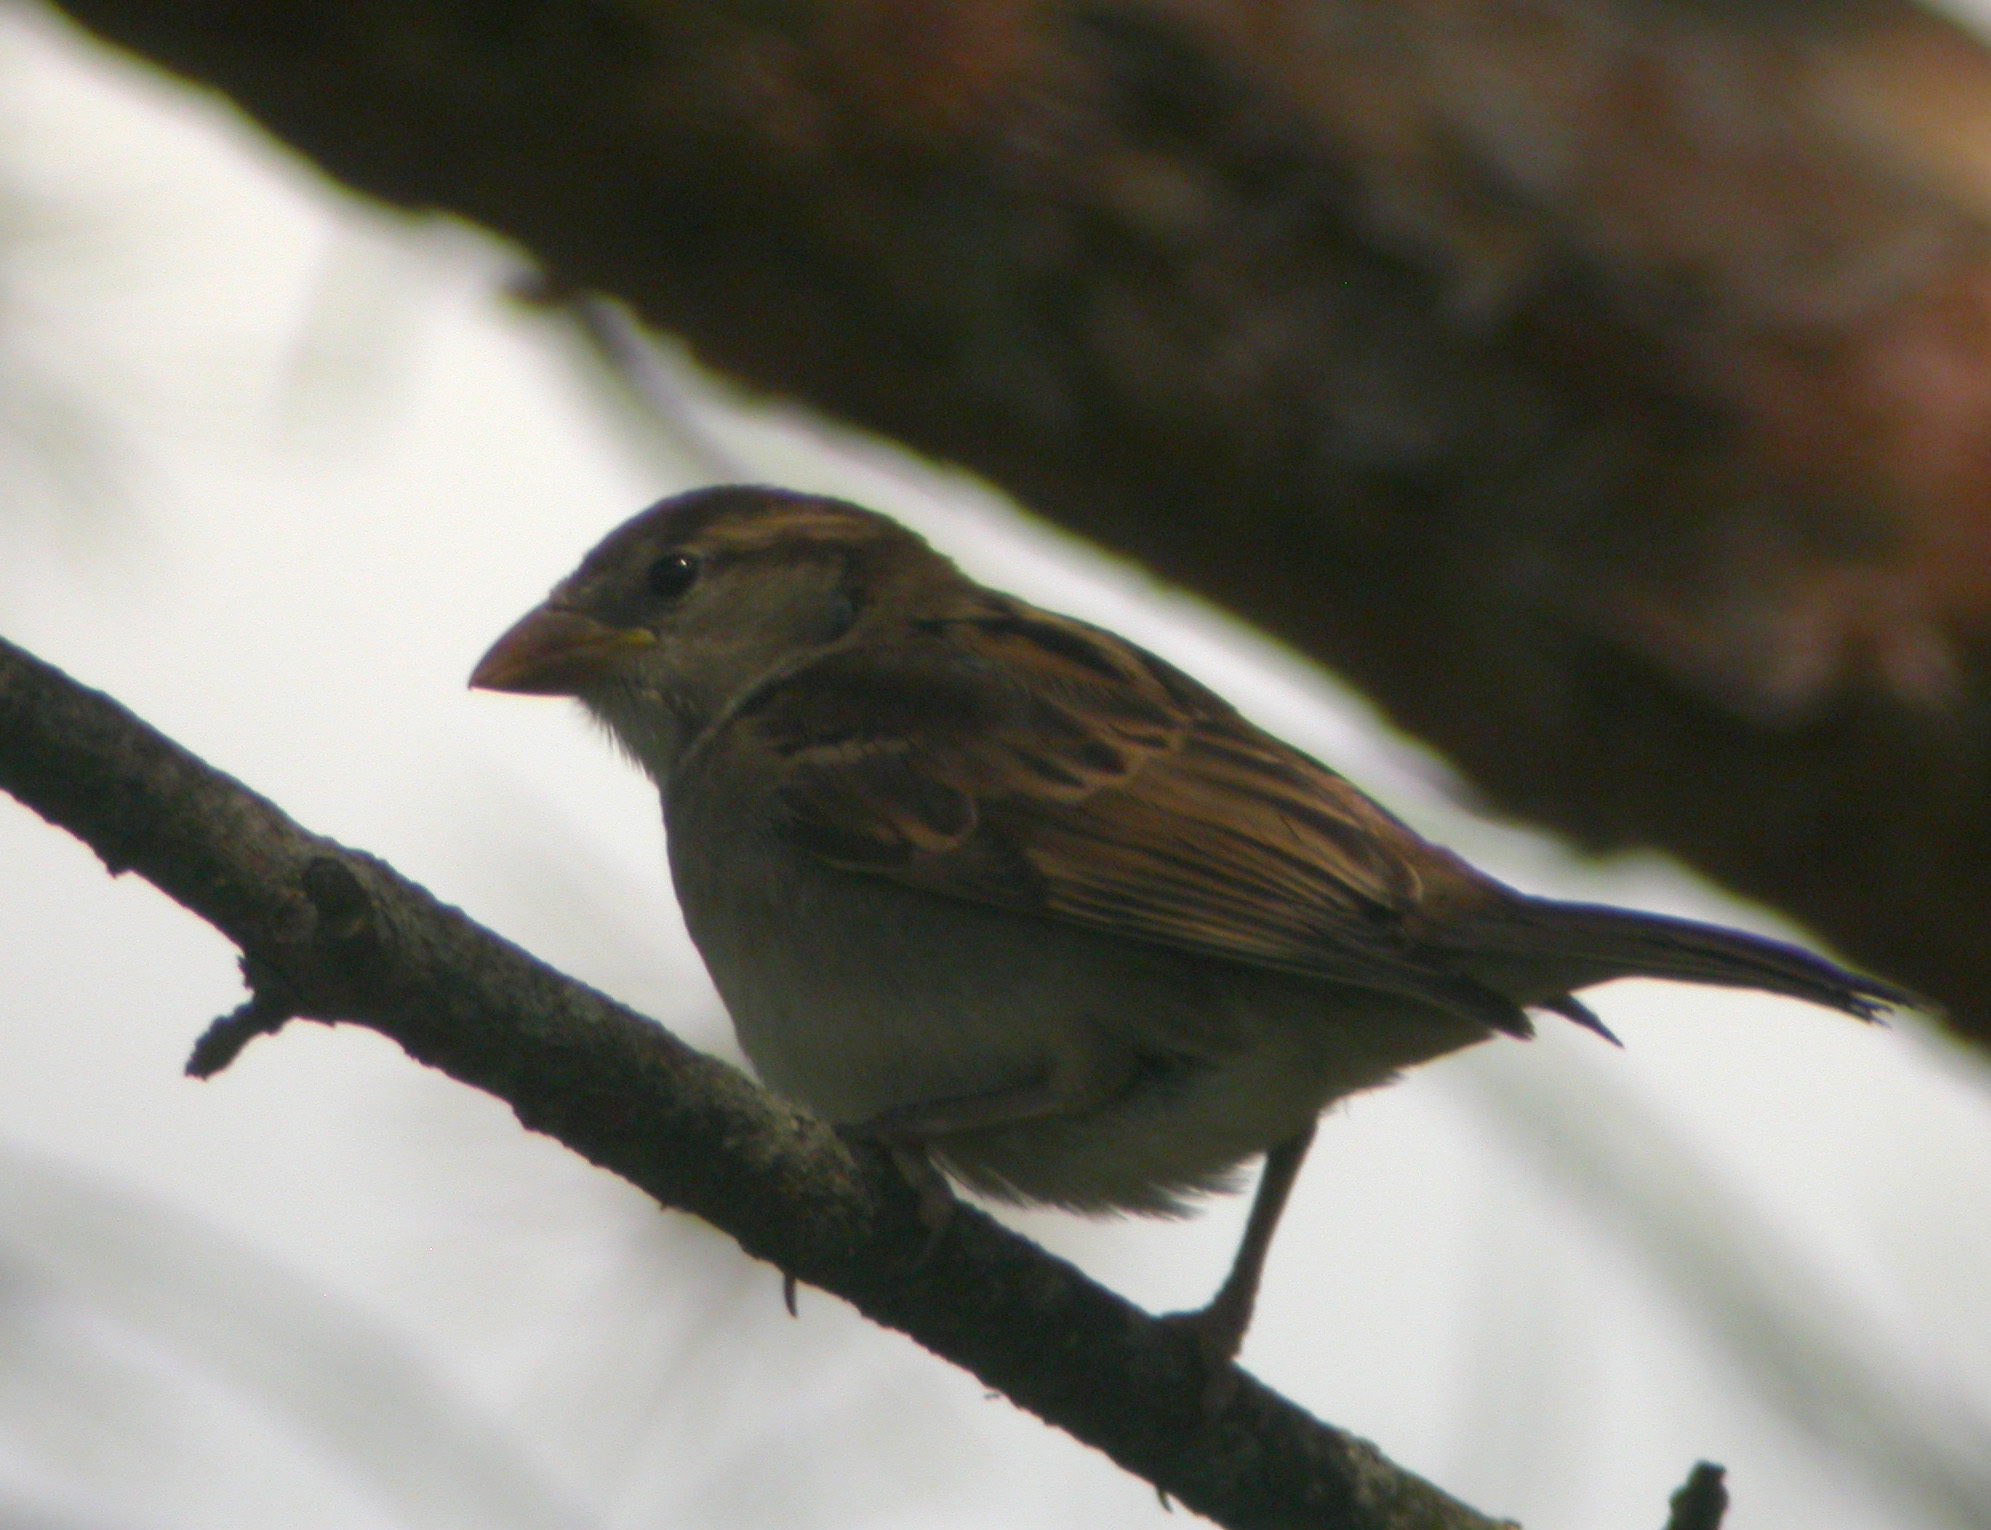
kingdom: Animalia
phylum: Chordata
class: Aves
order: Passeriformes
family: Passeridae
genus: Passer
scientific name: Passer domesticus
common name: House sparrow
